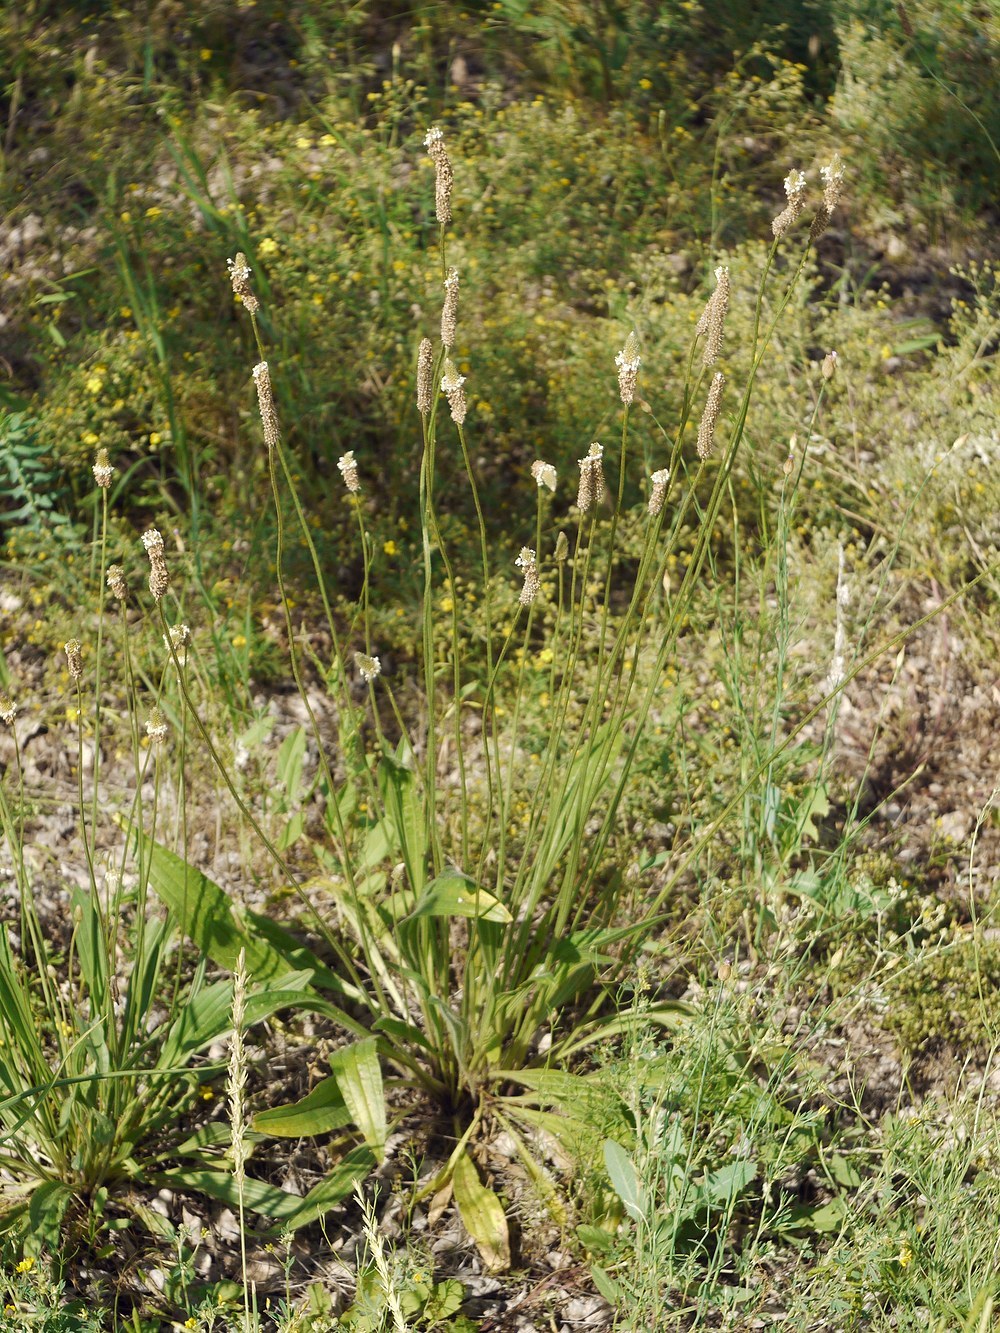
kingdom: Plantae
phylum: Tracheophyta
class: Magnoliopsida
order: Lamiales
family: Plantaginaceae
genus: Plantago
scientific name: Plantago lanceolata
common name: Ribwort plantain
